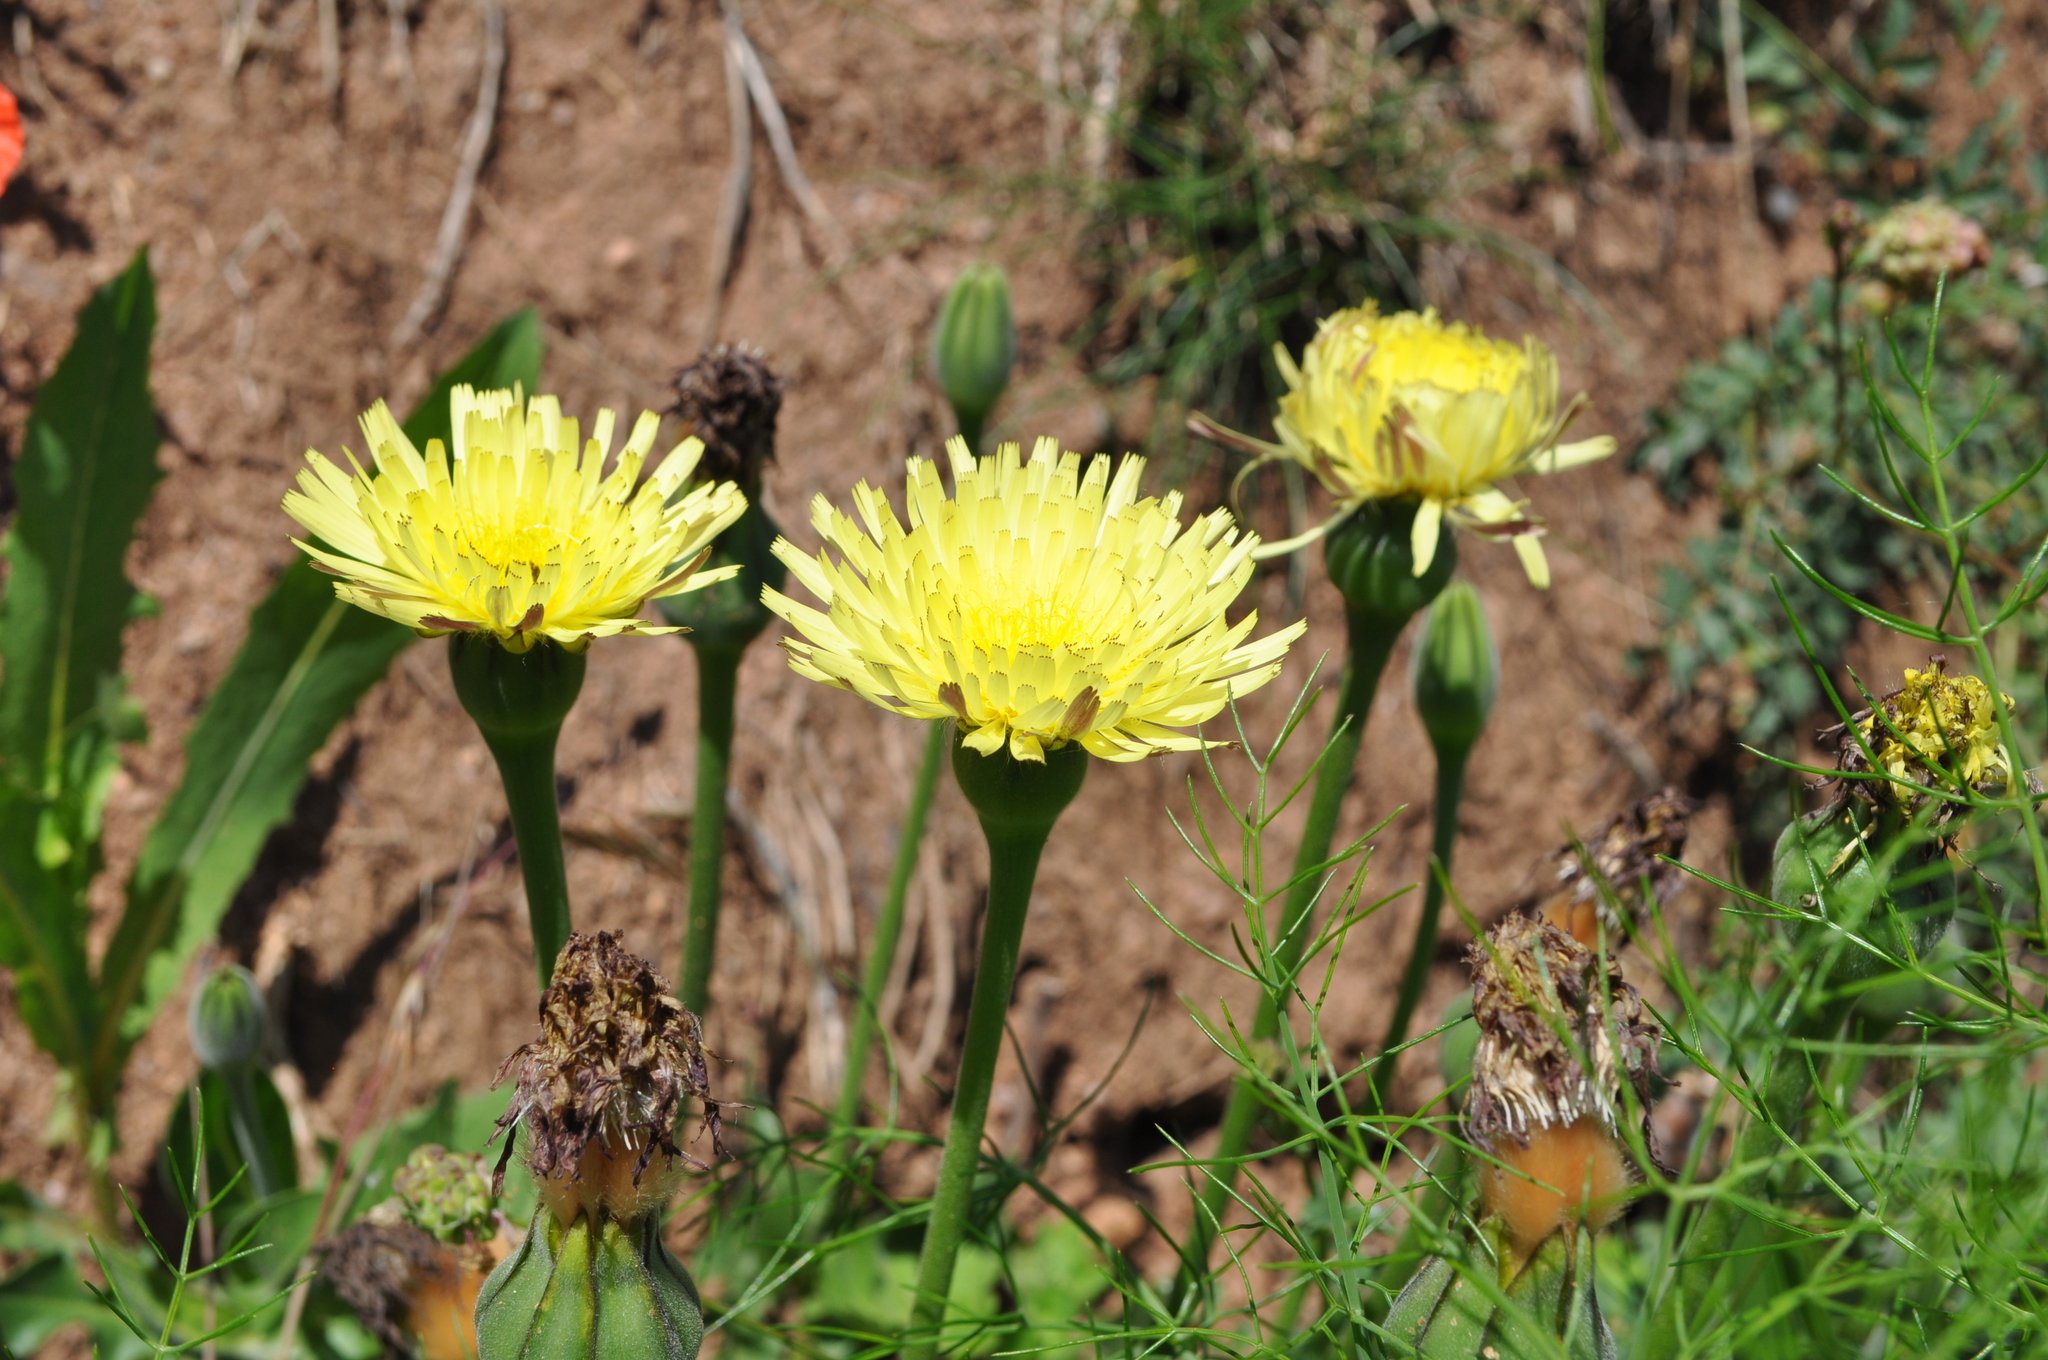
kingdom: Plantae
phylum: Tracheophyta
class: Magnoliopsida
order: Asterales
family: Asteraceae
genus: Urospermum
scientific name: Urospermum dalechampii
